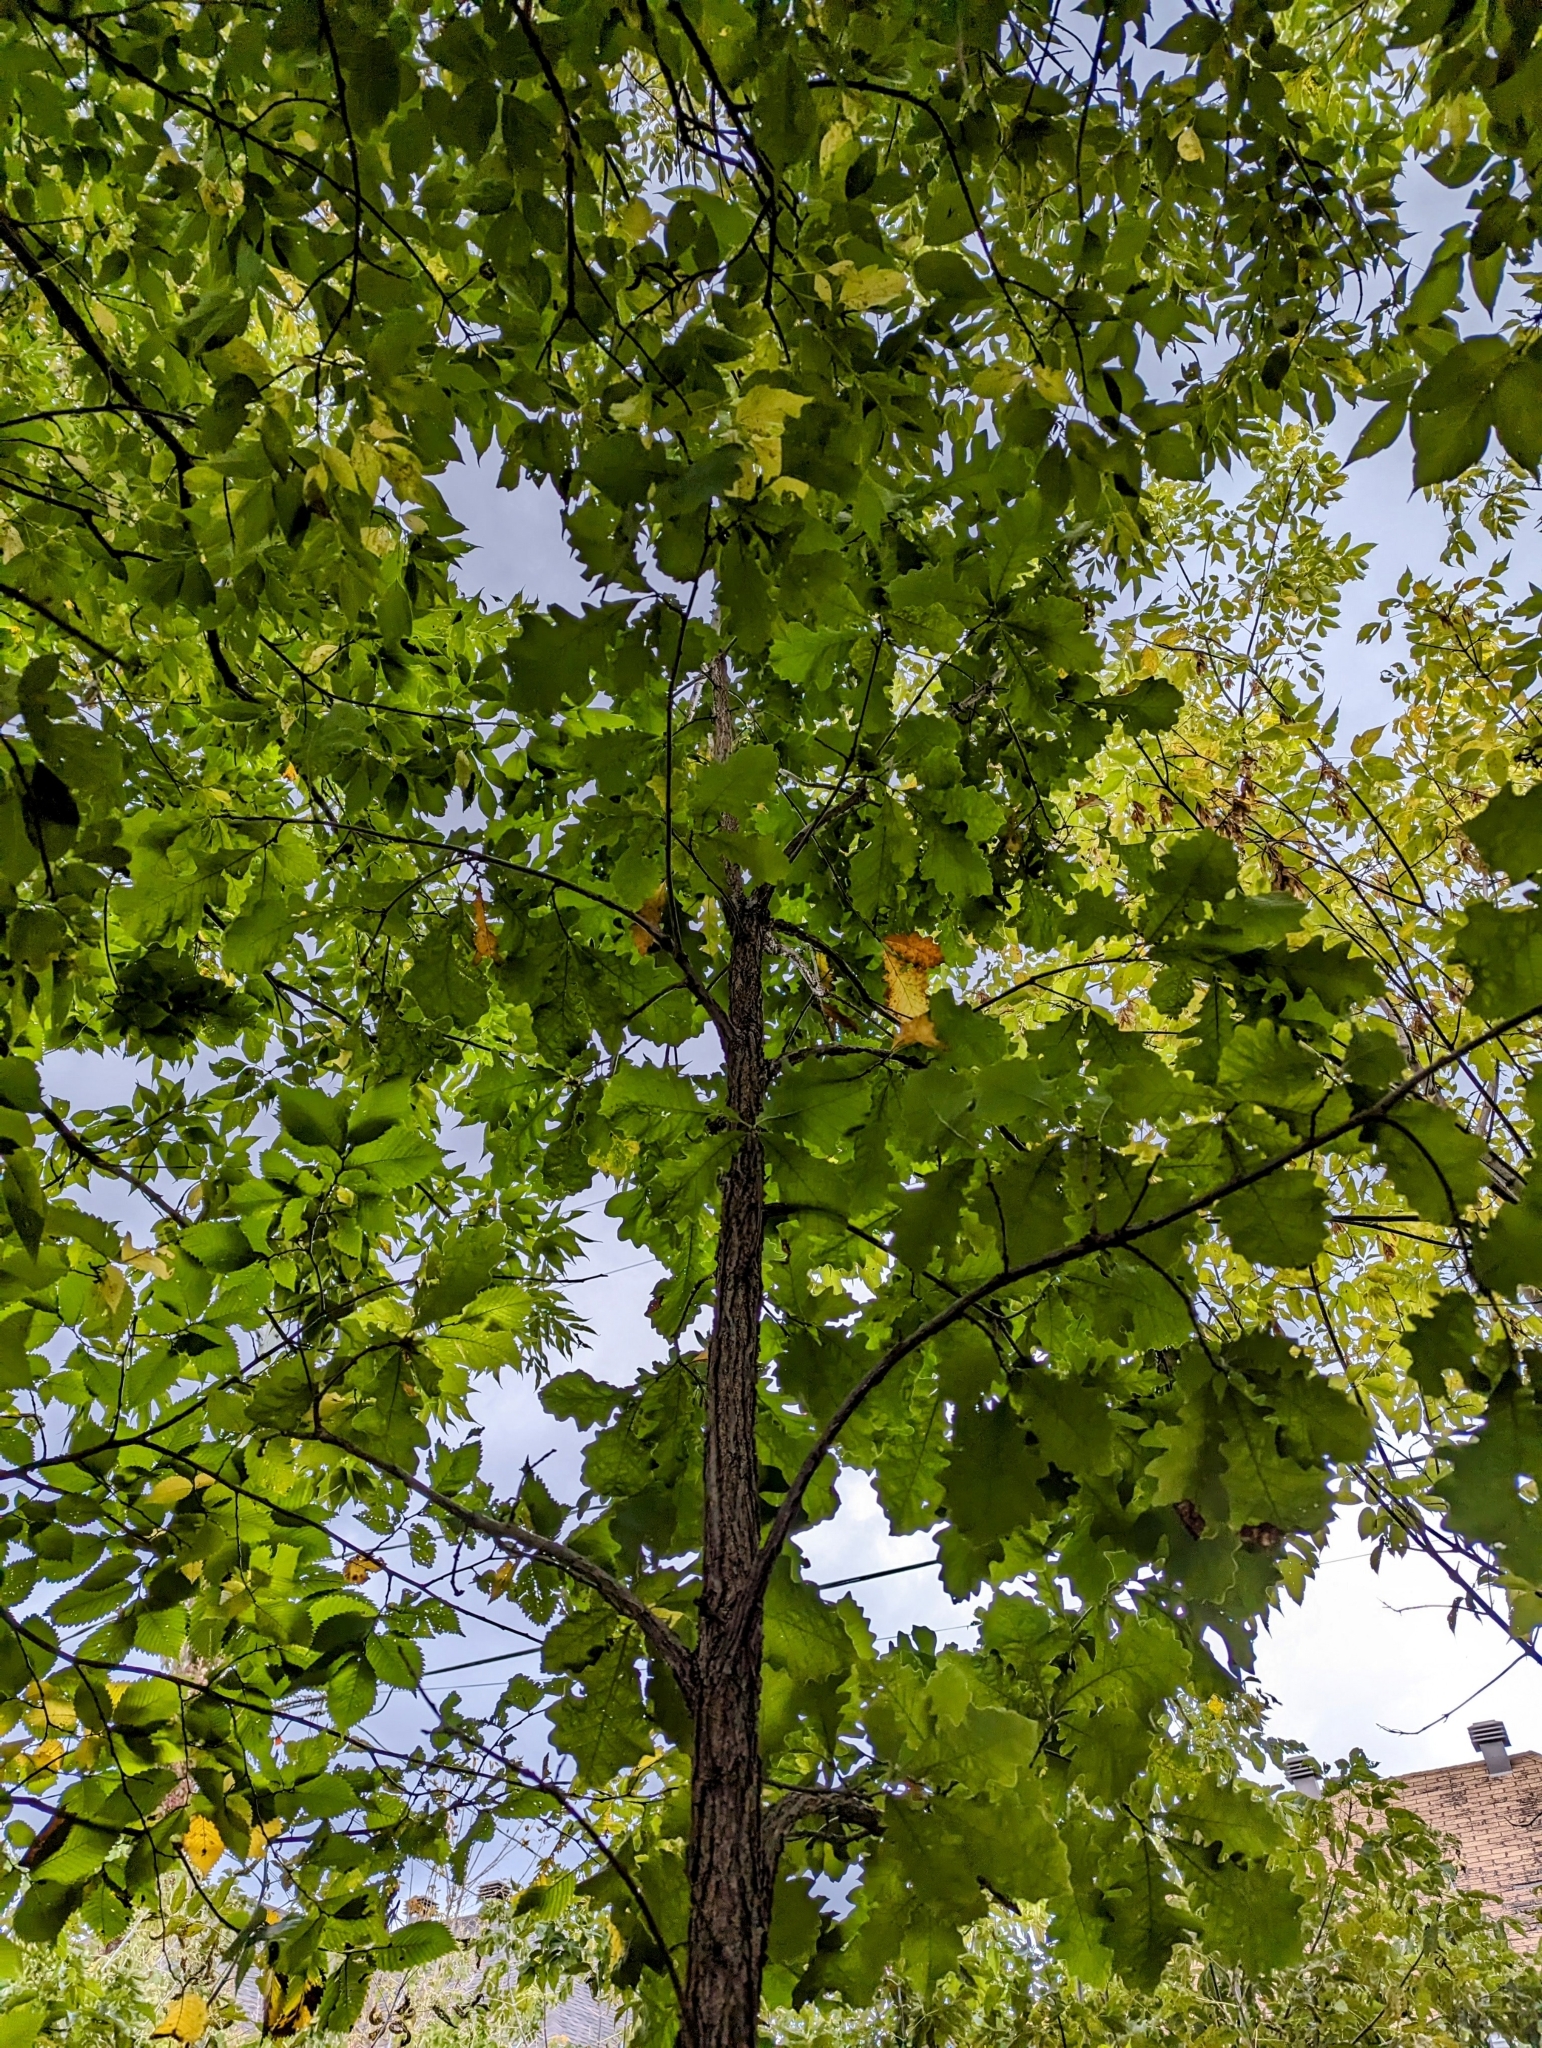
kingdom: Plantae
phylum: Tracheophyta
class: Magnoliopsida
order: Fagales
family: Fagaceae
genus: Quercus
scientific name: Quercus macrocarpa
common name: Bur oak
